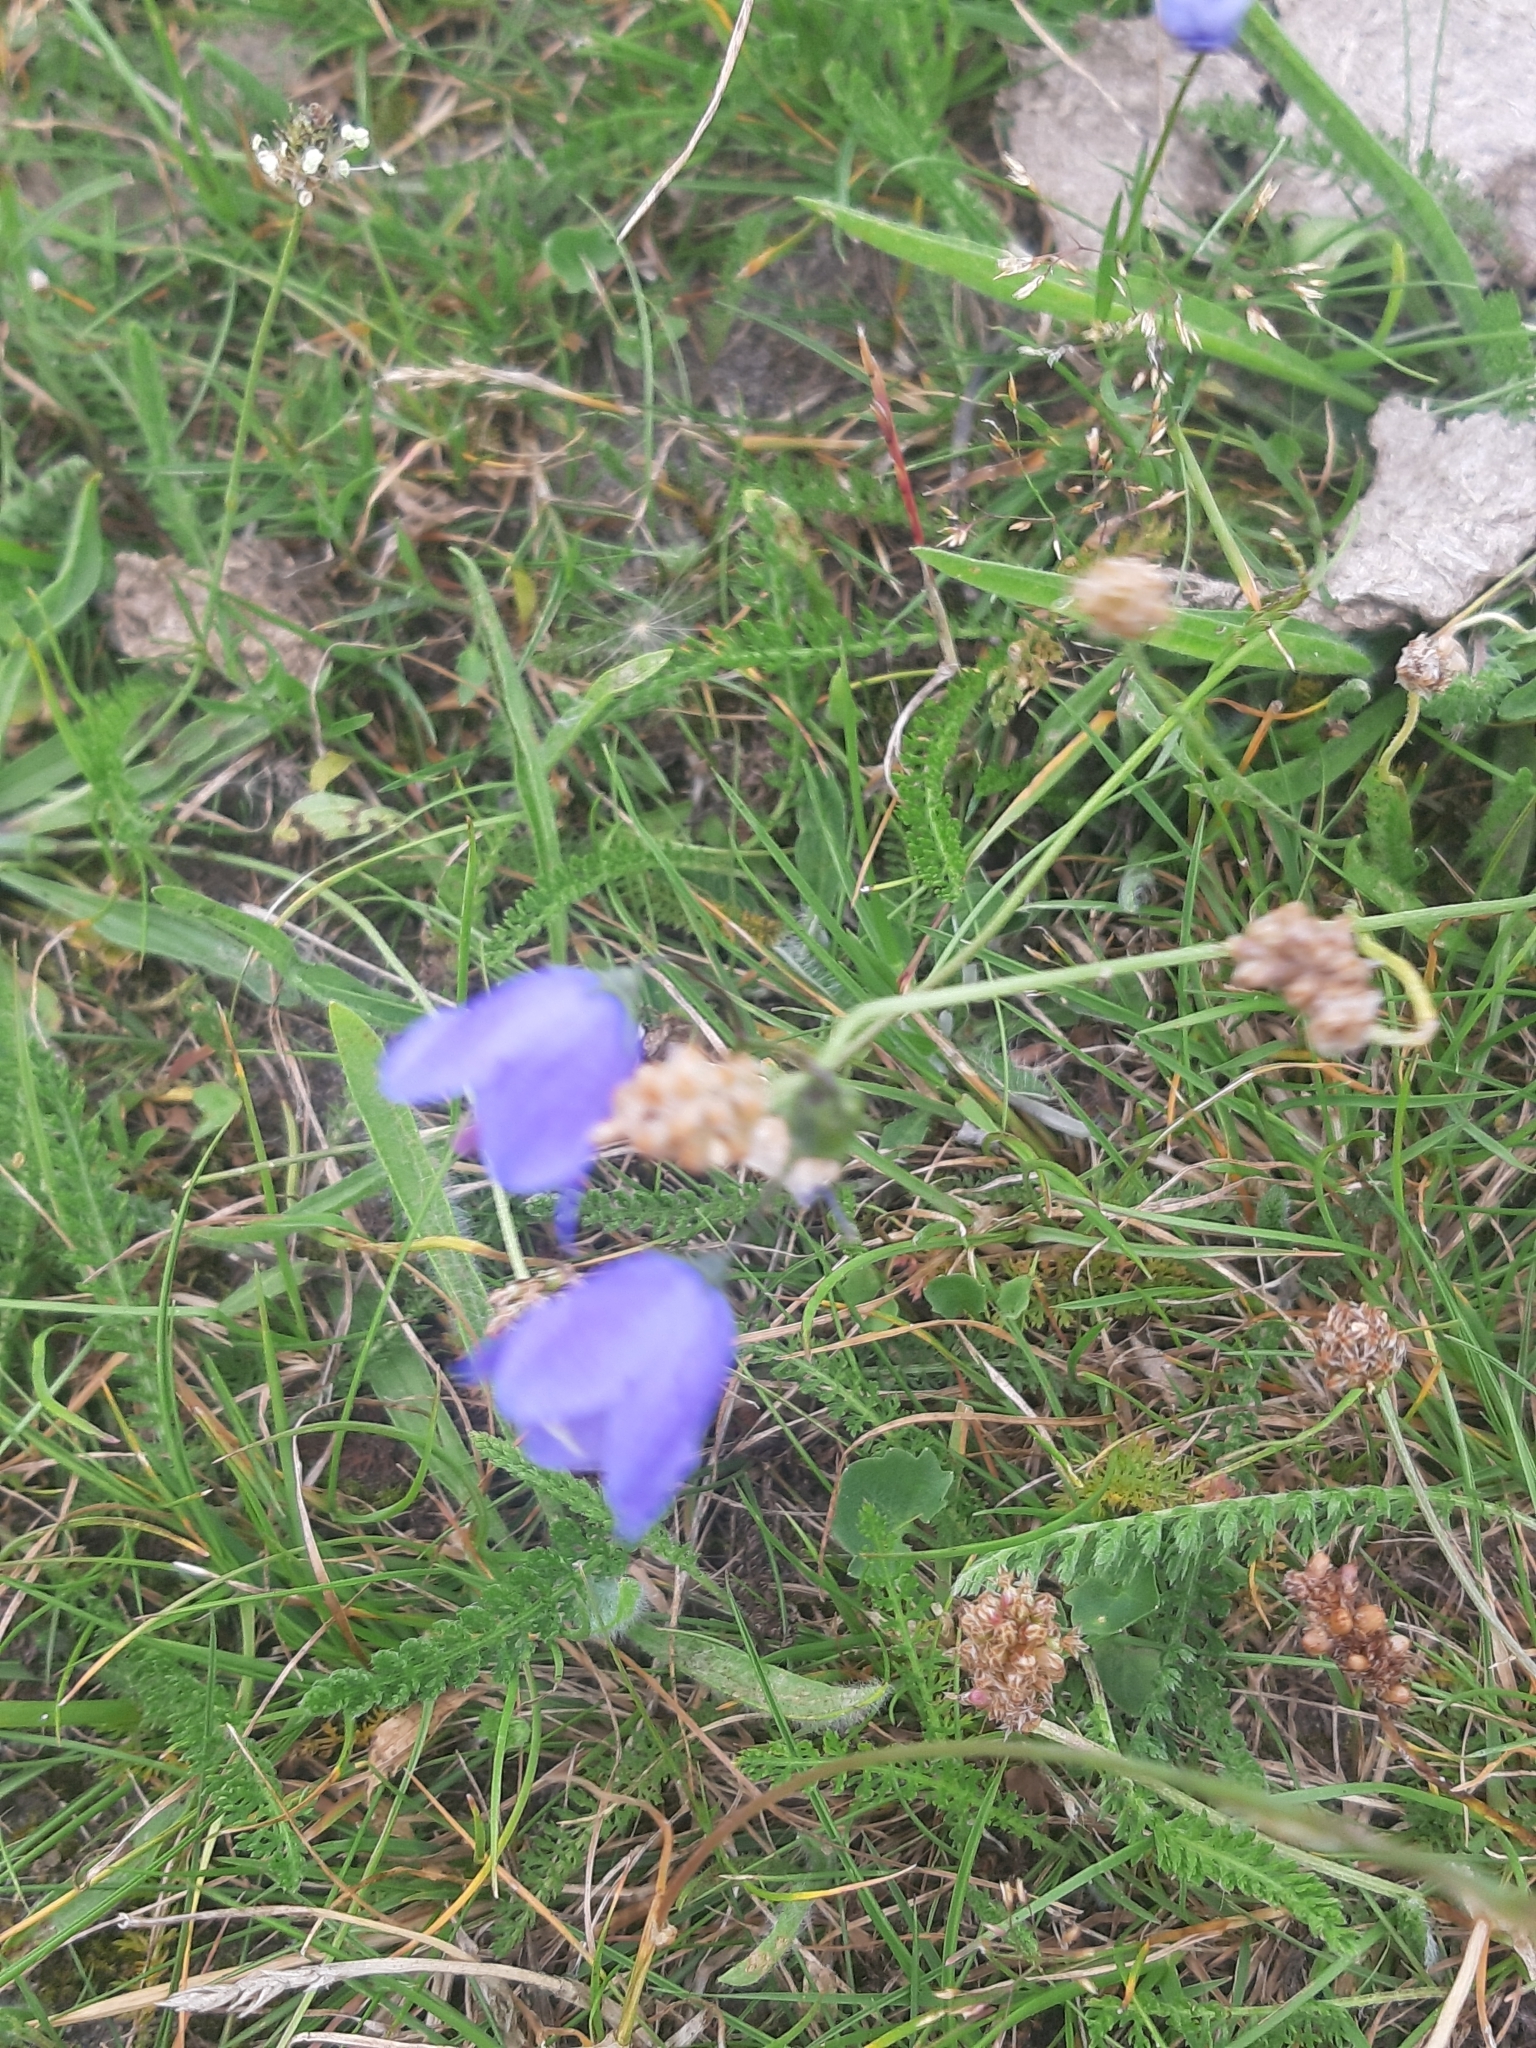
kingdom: Plantae
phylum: Tracheophyta
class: Magnoliopsida
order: Asterales
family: Campanulaceae
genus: Campanula
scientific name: Campanula rotundifolia
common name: Harebell
